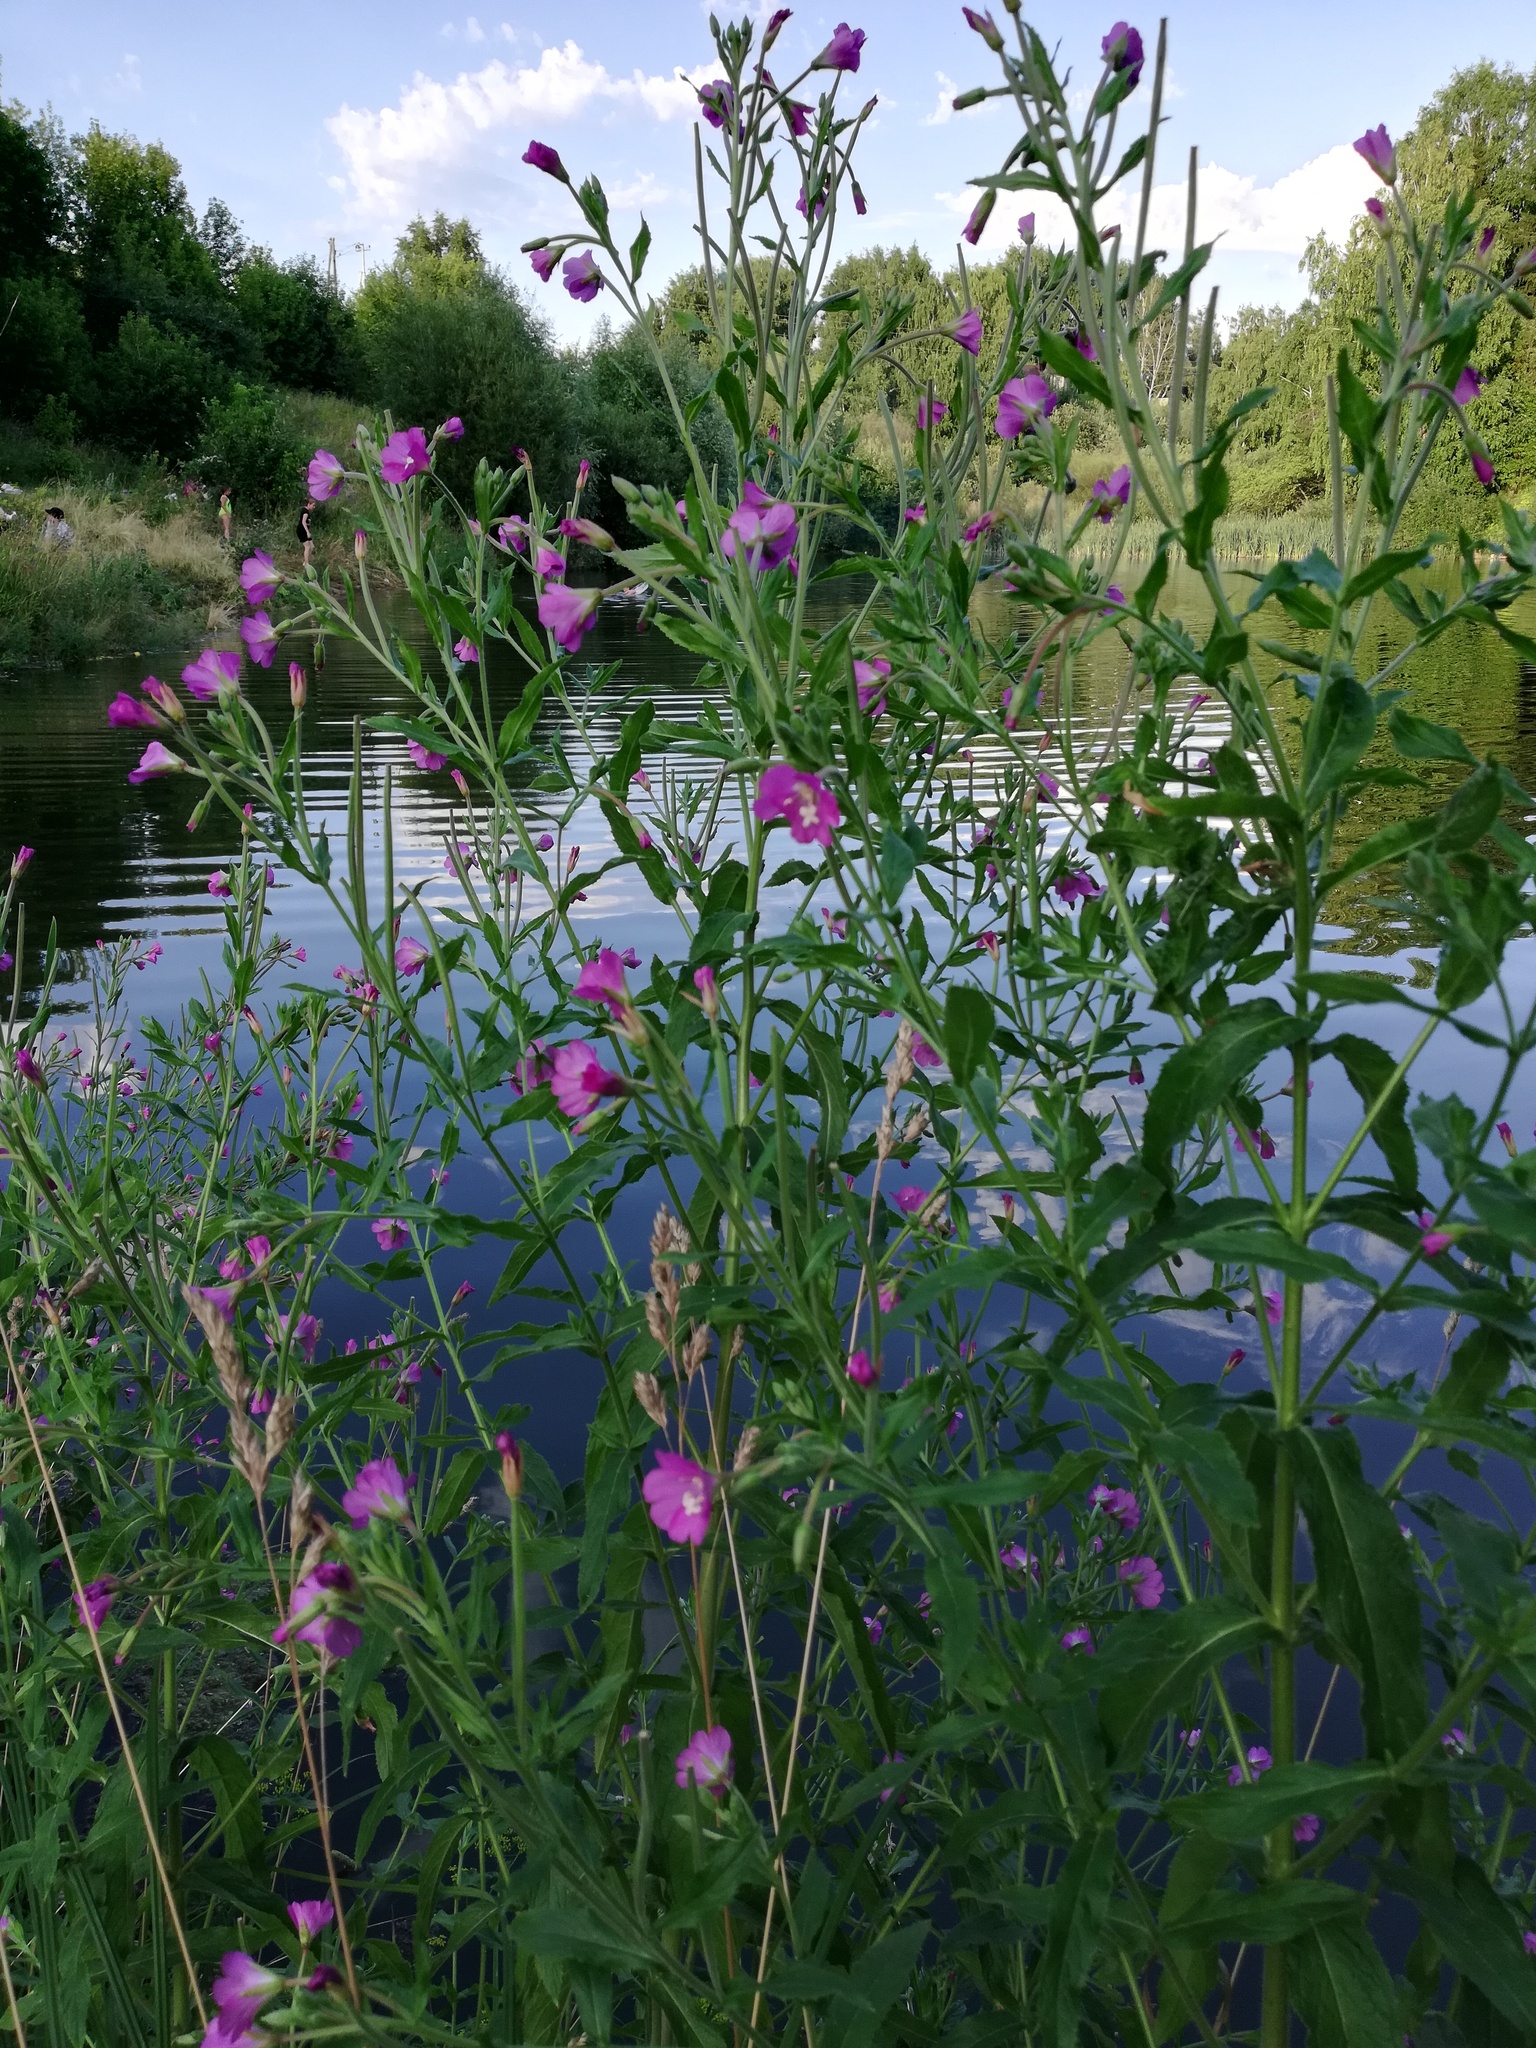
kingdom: Plantae
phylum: Tracheophyta
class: Magnoliopsida
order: Myrtales
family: Onagraceae
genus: Epilobium
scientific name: Epilobium hirsutum
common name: Great willowherb
